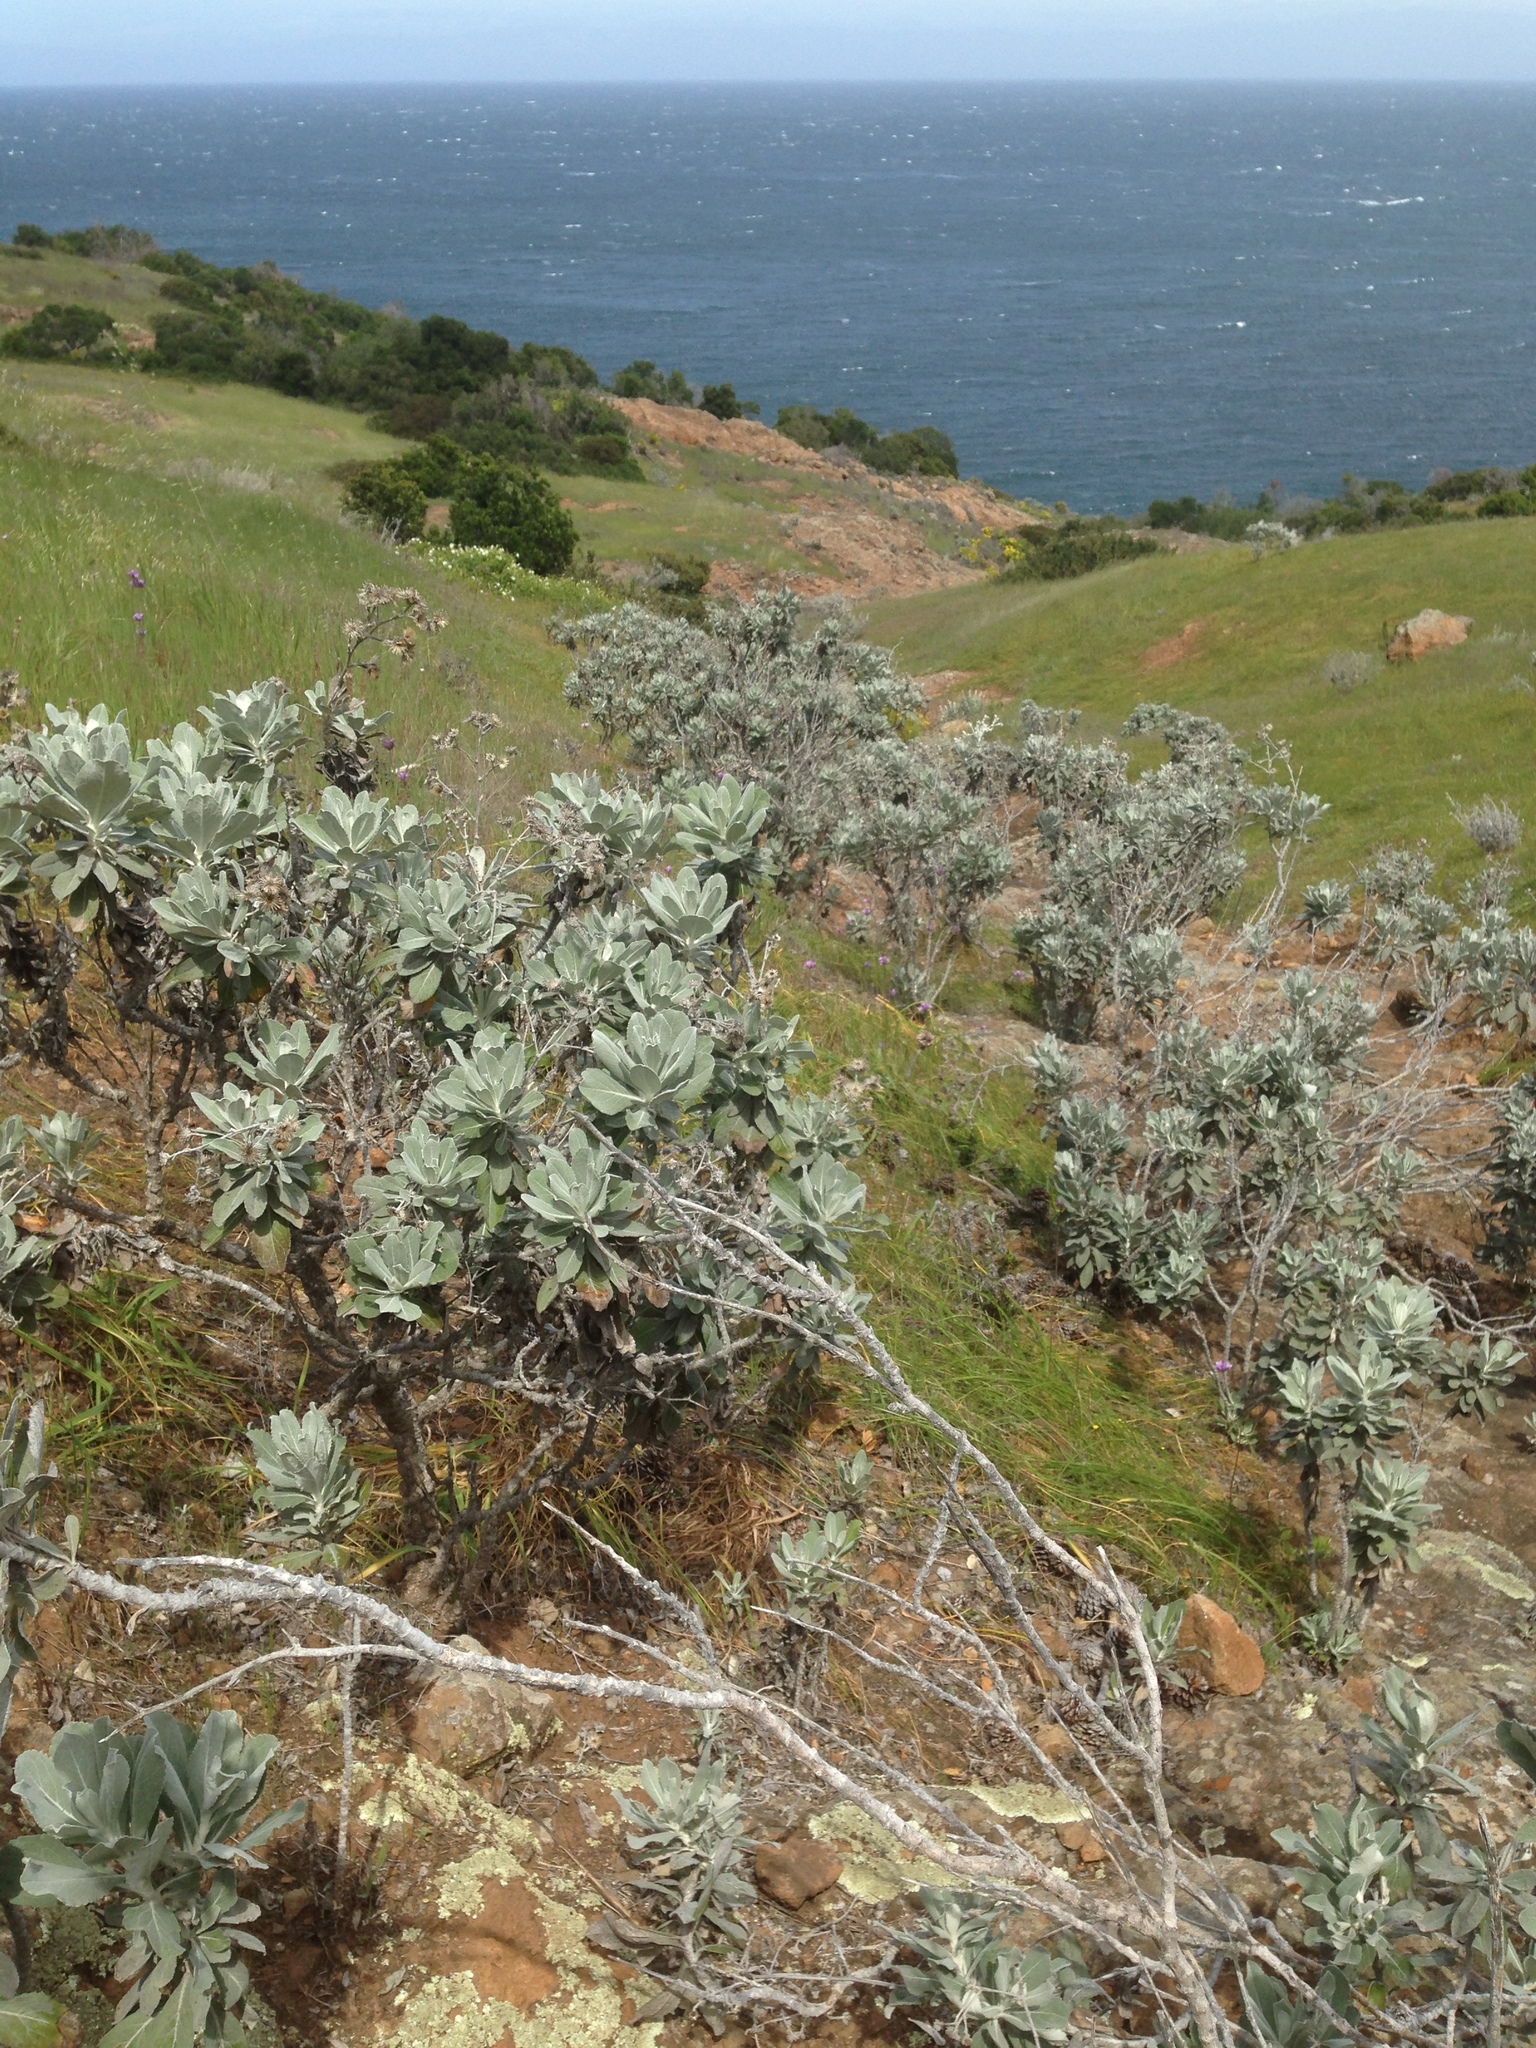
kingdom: Plantae
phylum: Tracheophyta
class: Magnoliopsida
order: Asterales
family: Asteraceae
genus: Hazardia
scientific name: Hazardia detonsa
